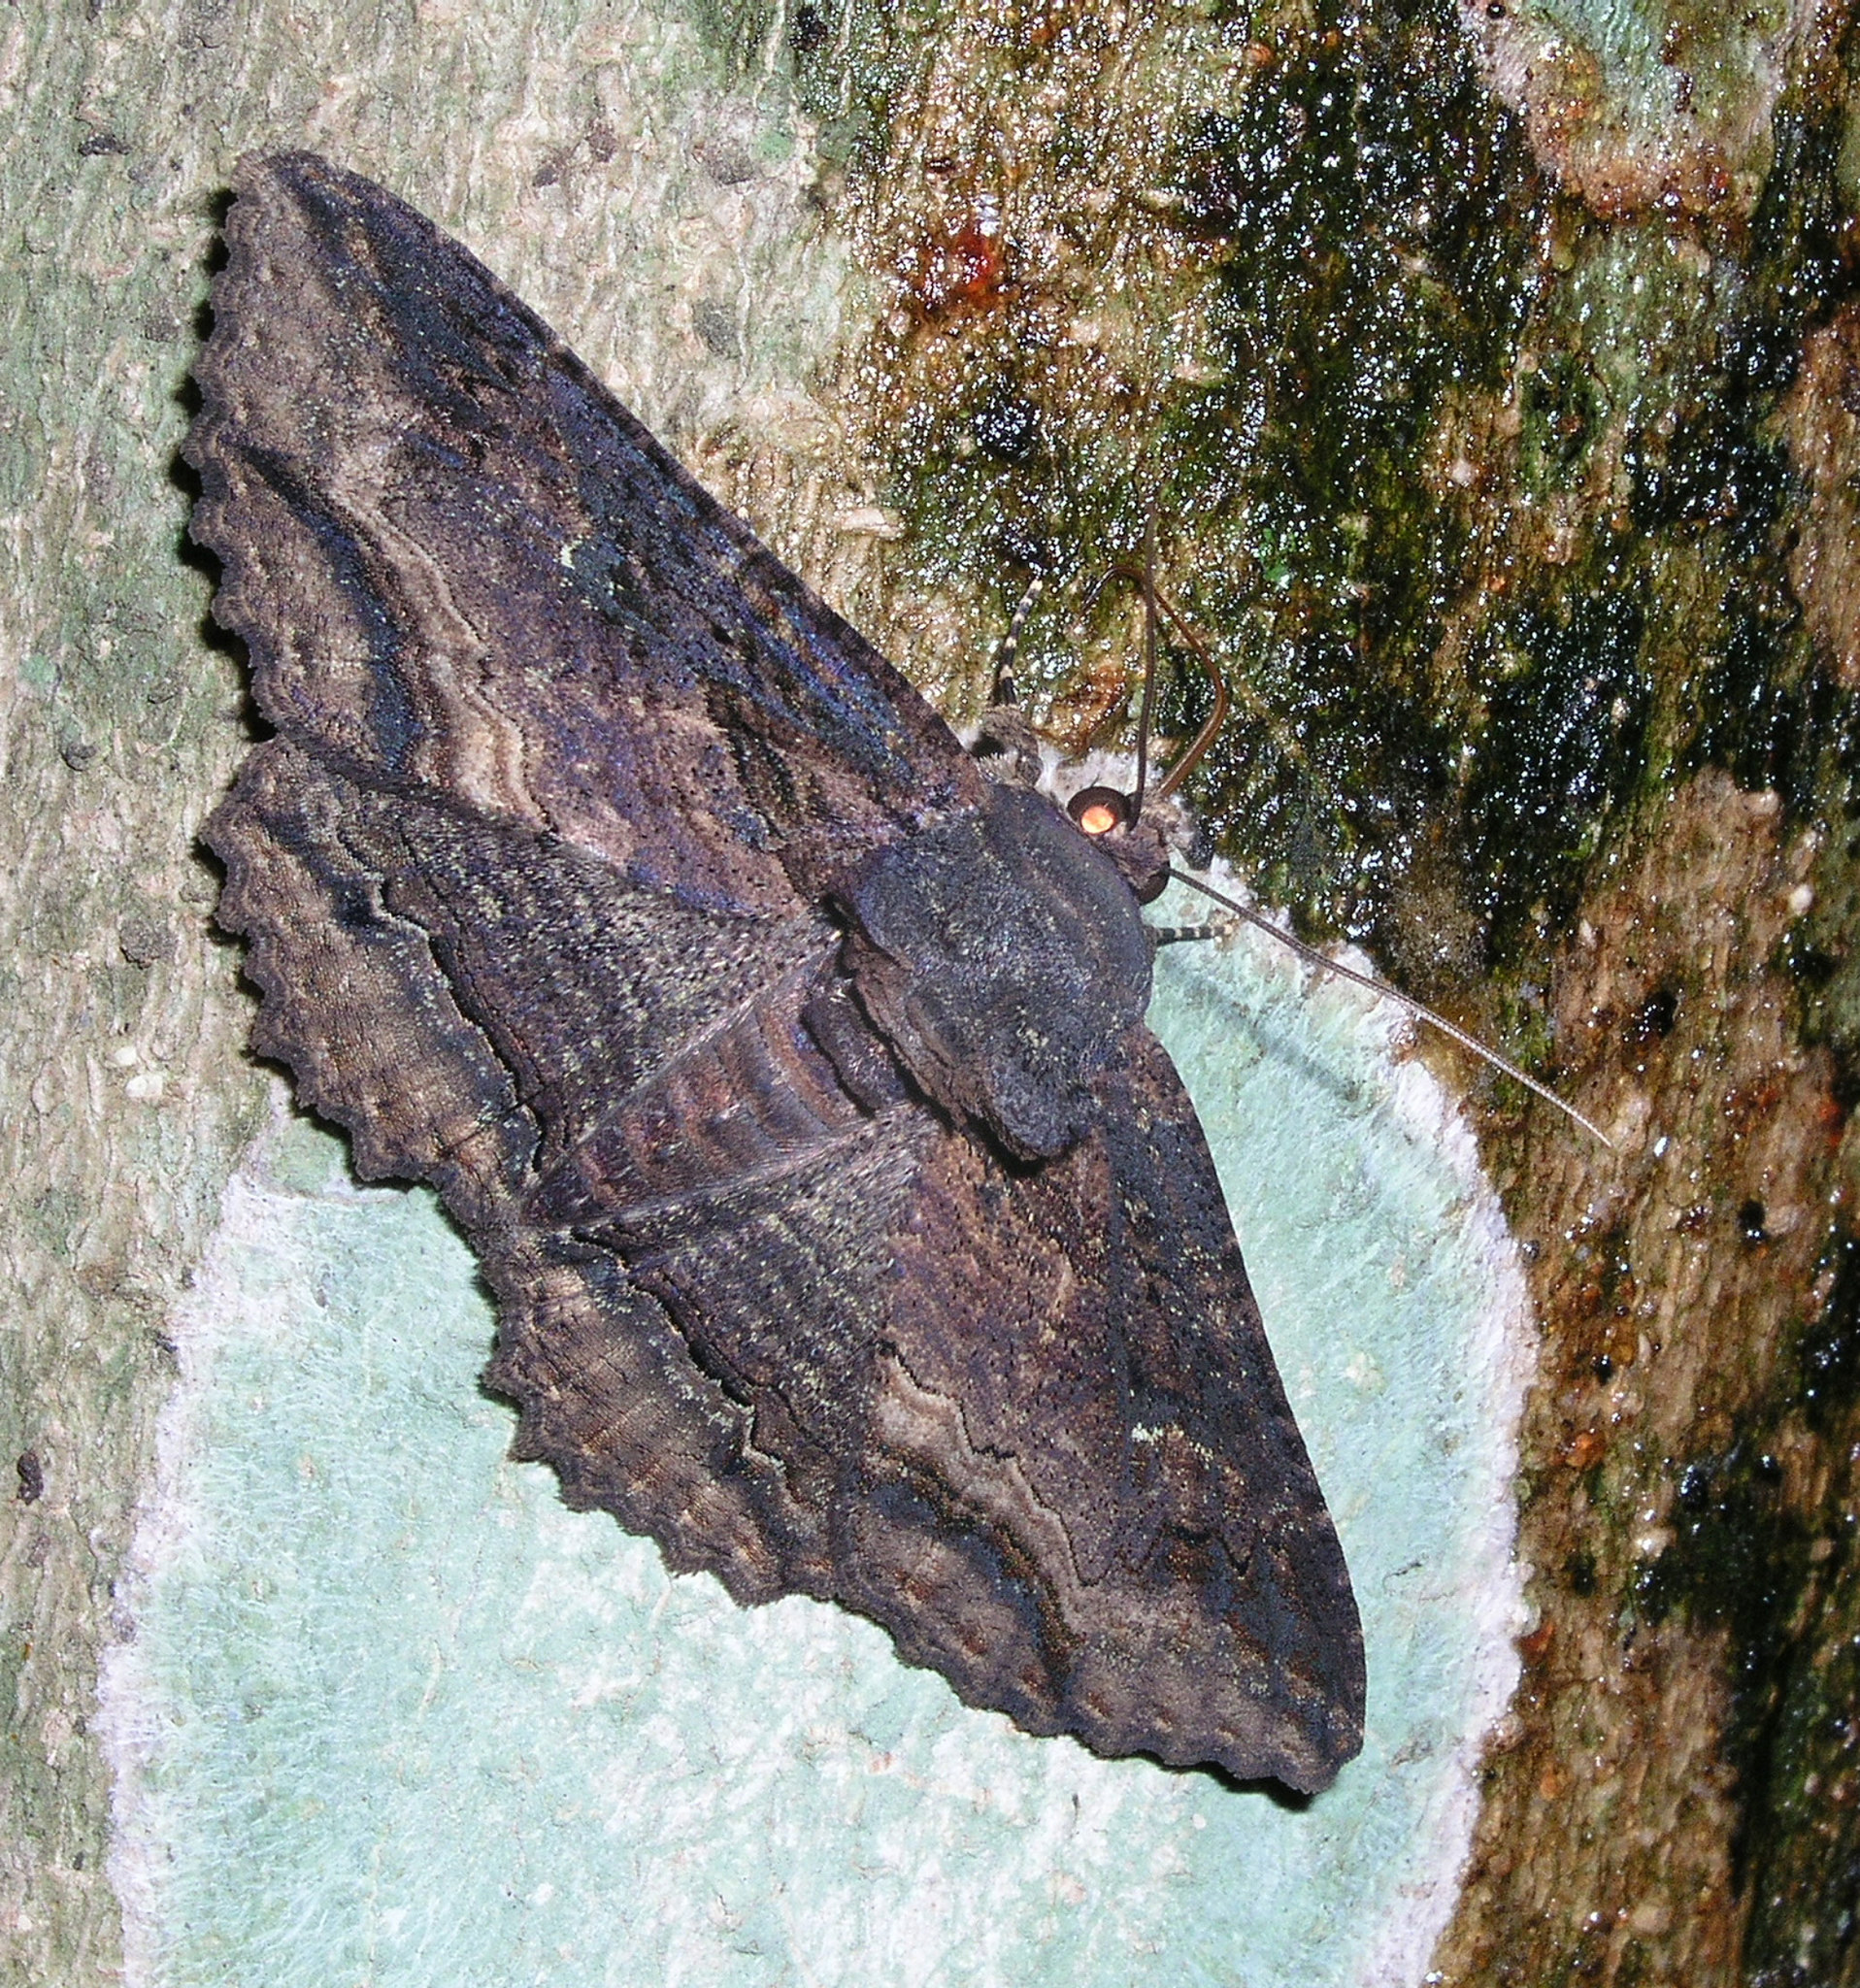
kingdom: Animalia
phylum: Arthropoda
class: Insecta
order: Lepidoptera
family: Erebidae
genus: Zale
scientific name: Zale lunata
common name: Lunate zale moth
